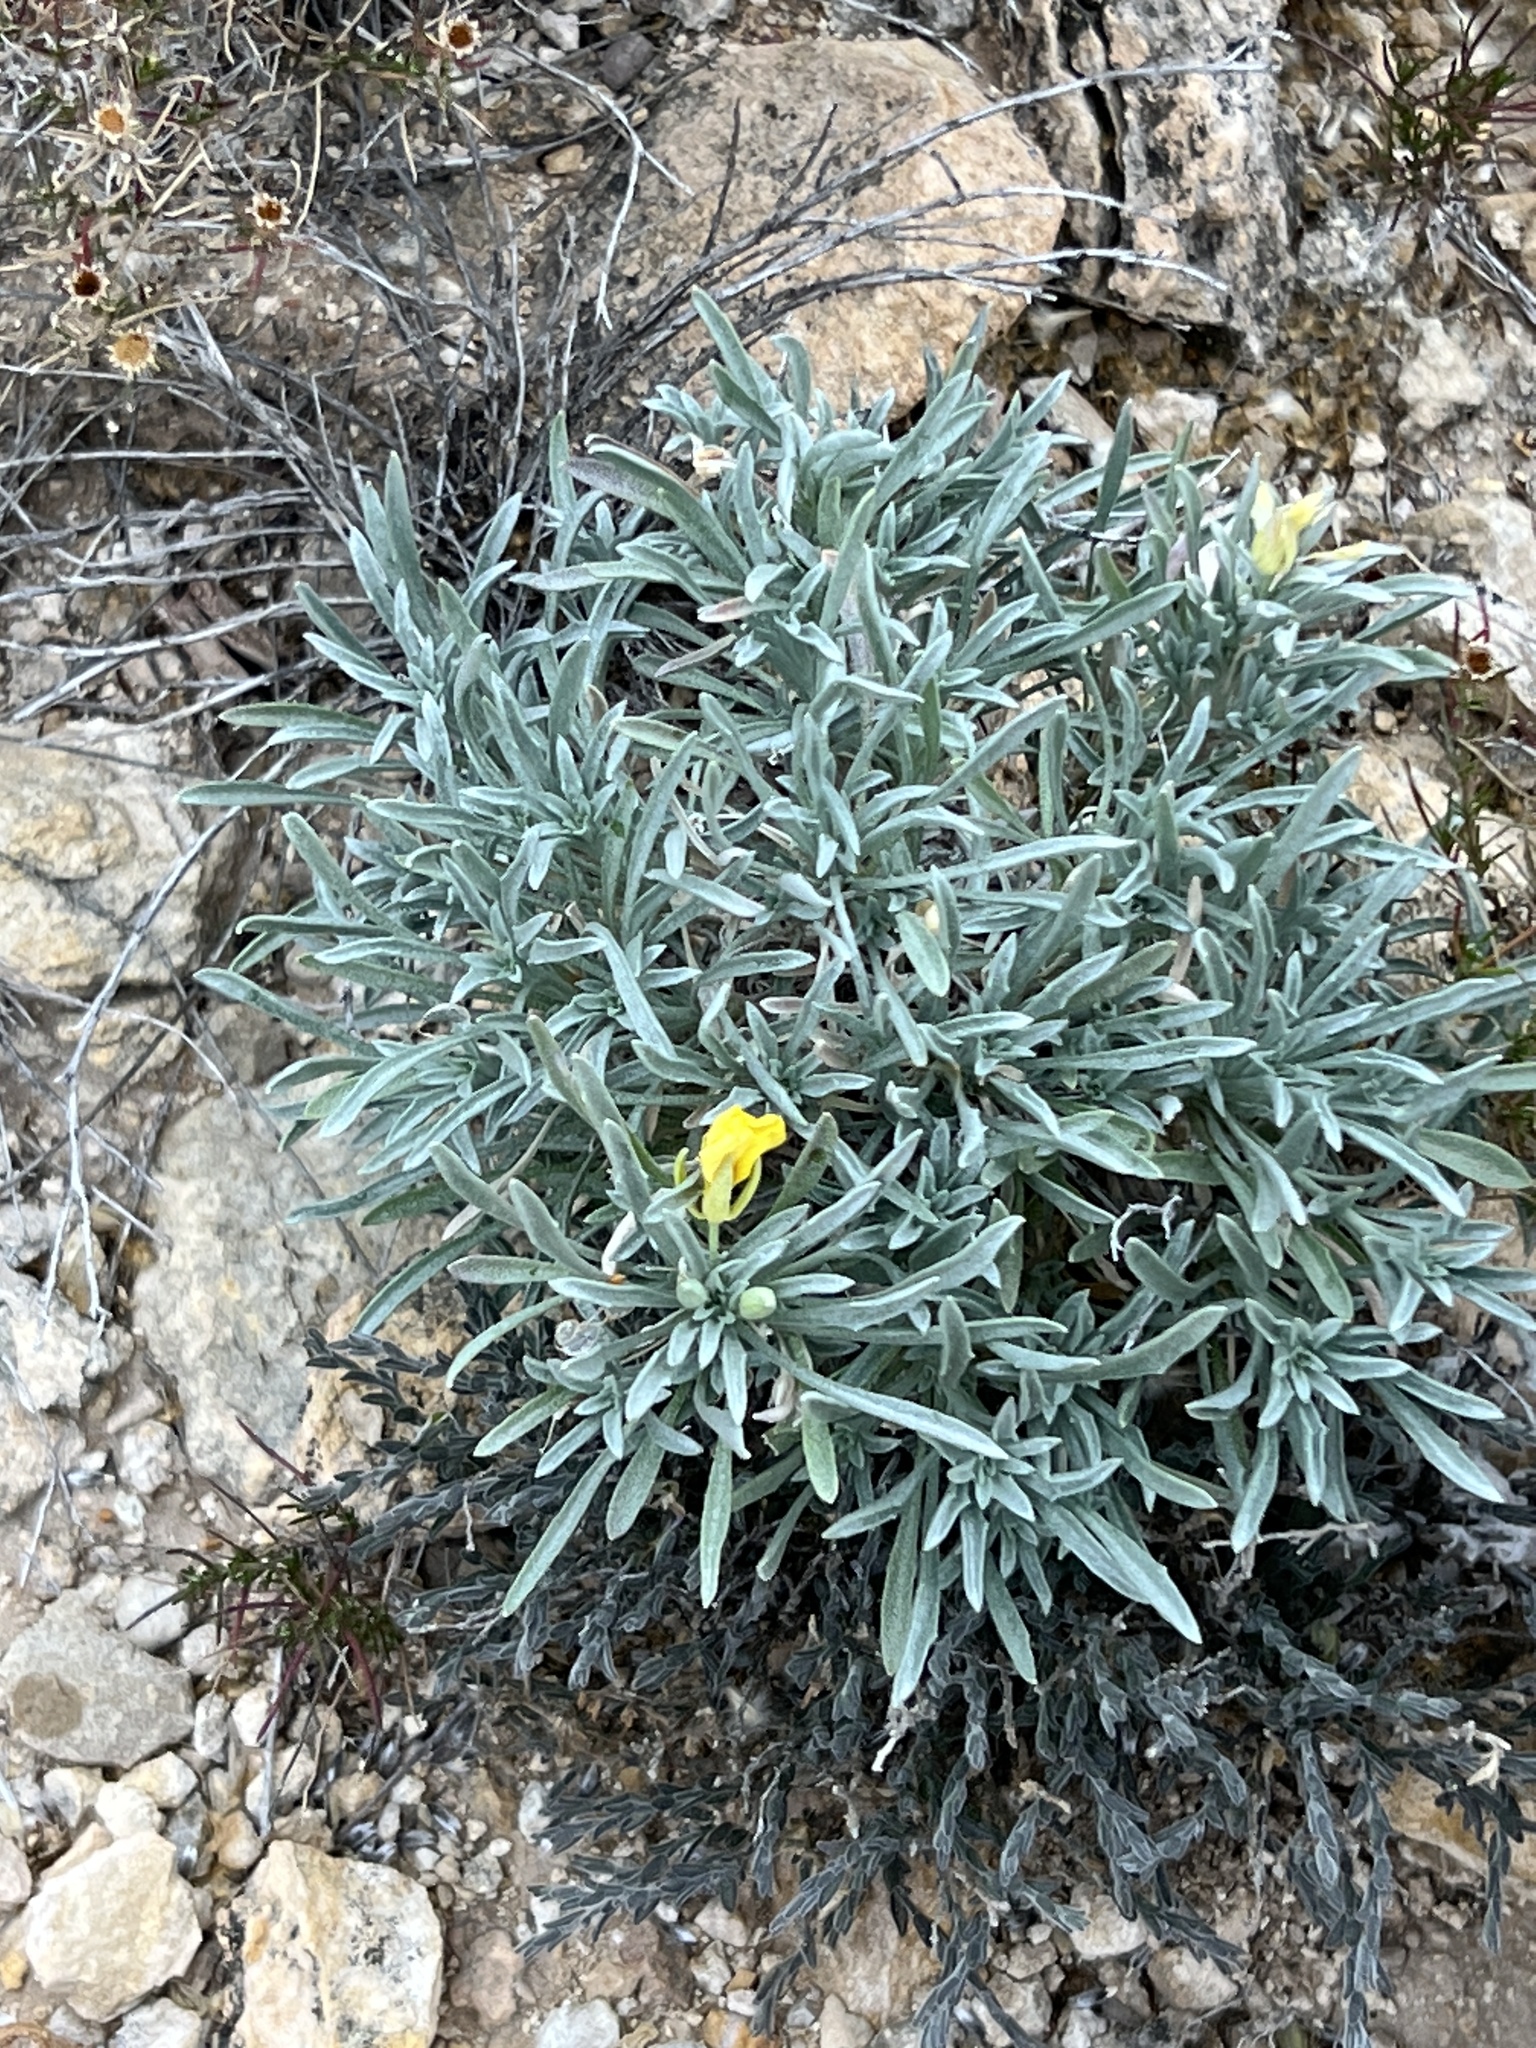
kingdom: Plantae
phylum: Tracheophyta
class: Magnoliopsida
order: Brassicales
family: Brassicaceae
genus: Physaria
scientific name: Physaria fendleri
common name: Fendler's bladderpod
